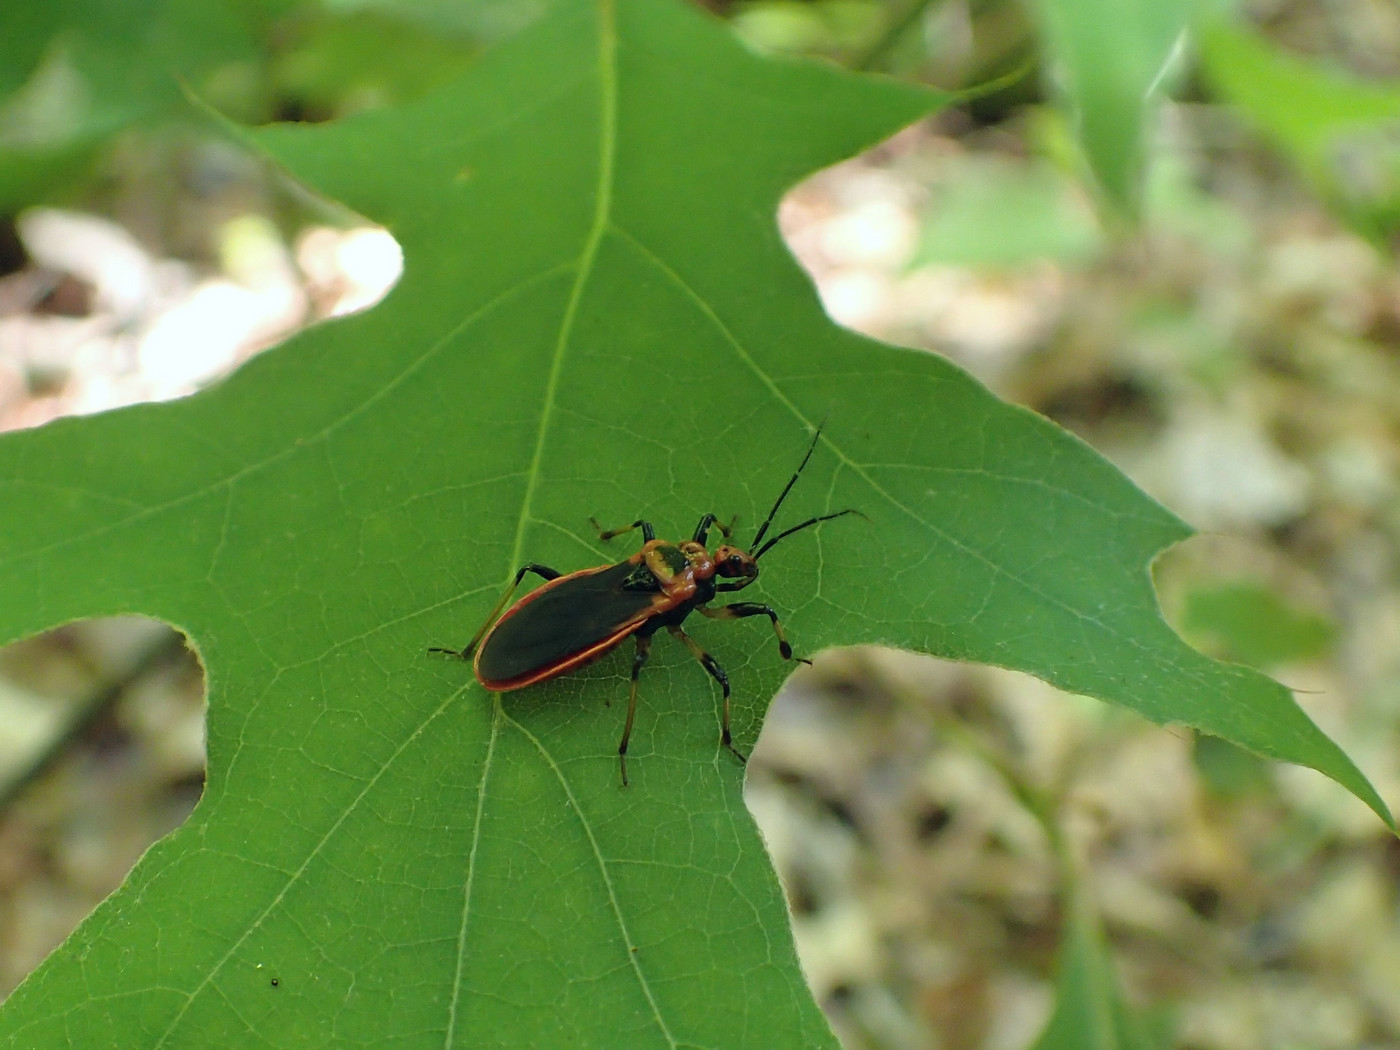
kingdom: Animalia
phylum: Arthropoda
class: Insecta
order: Hemiptera
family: Reduviidae
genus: Rhiginia
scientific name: Rhiginia cruciata
